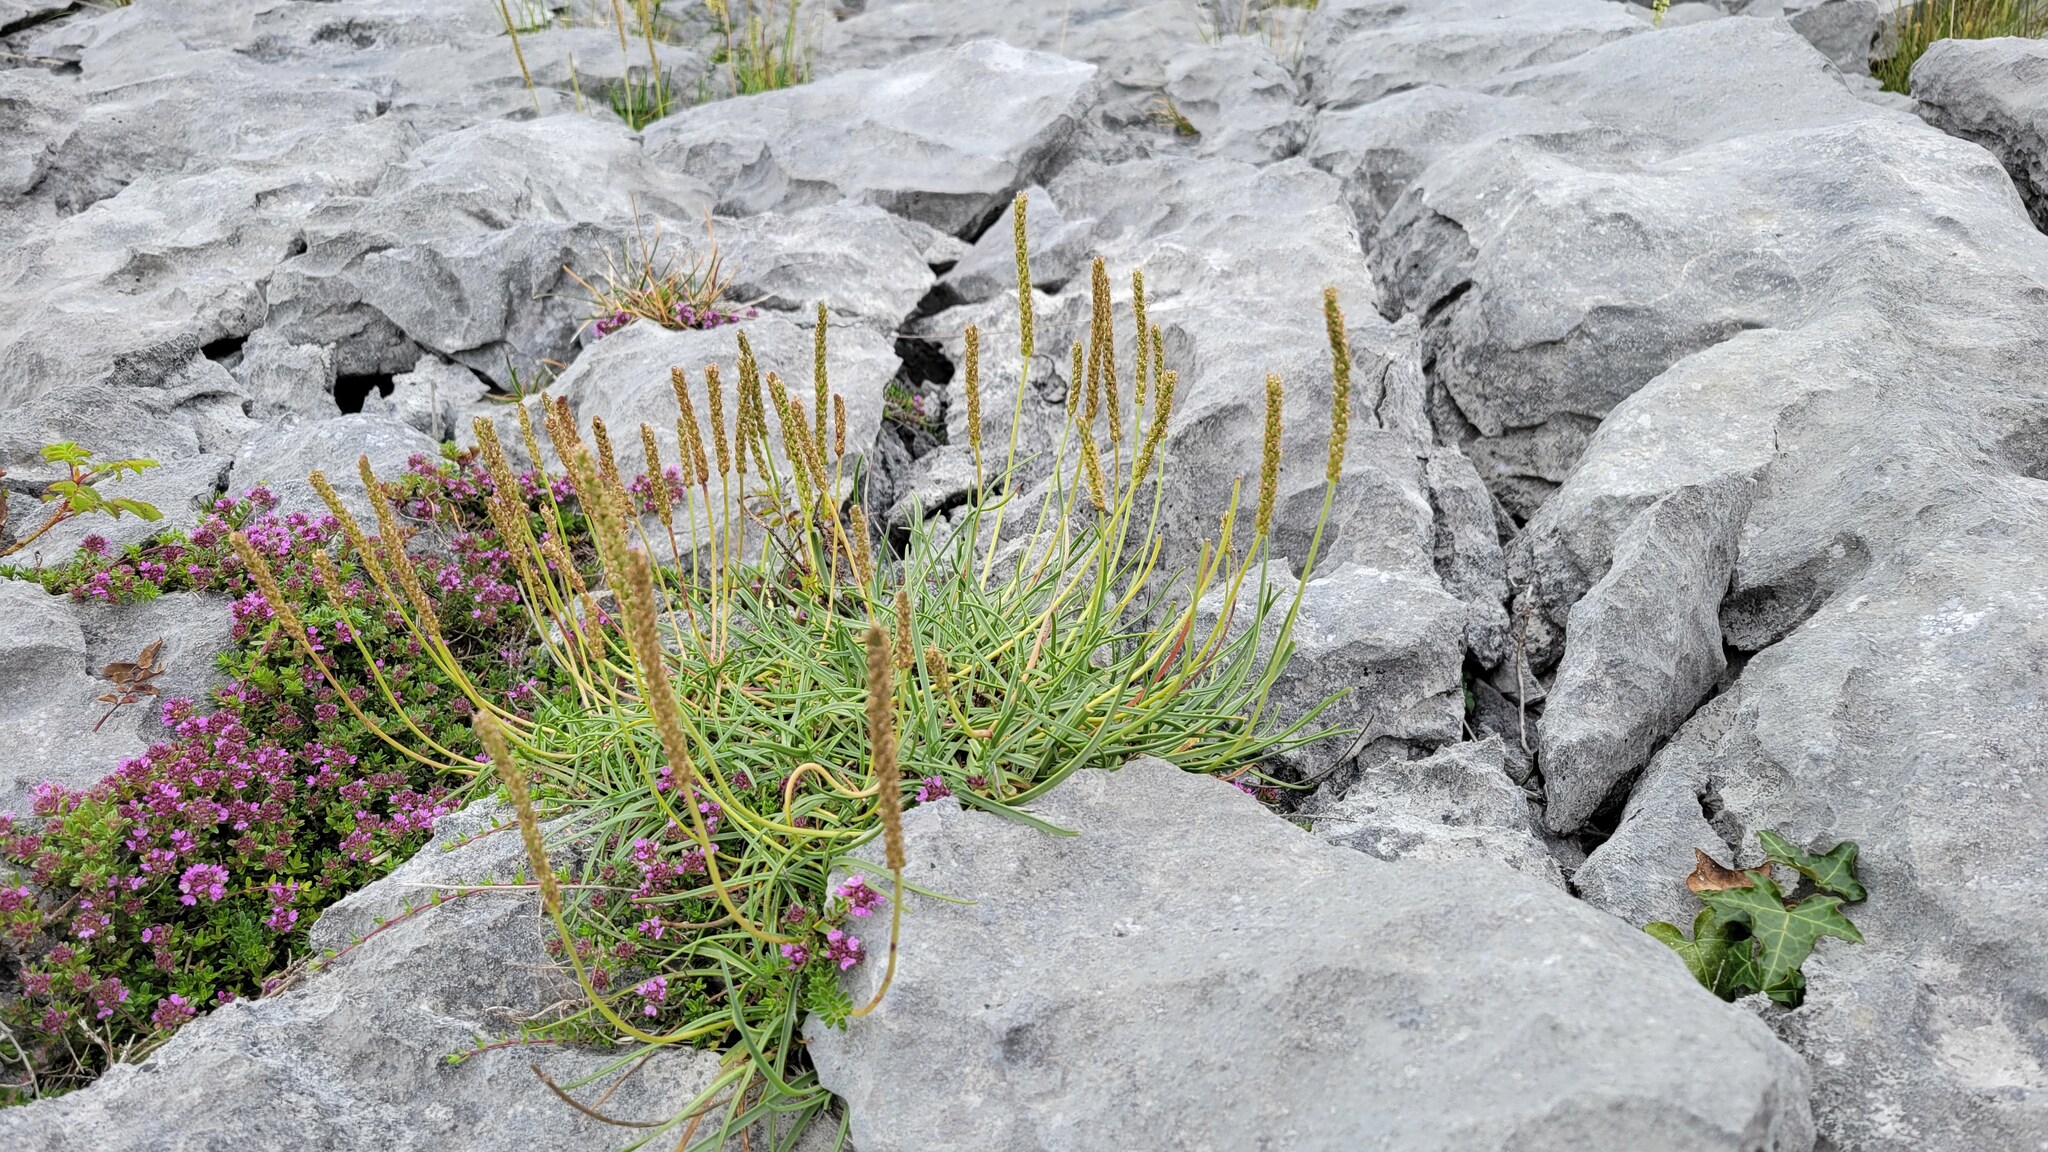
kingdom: Plantae
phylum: Tracheophyta
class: Magnoliopsida
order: Lamiales
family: Plantaginaceae
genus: Plantago
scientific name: Plantago maritima
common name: Sea plantain
